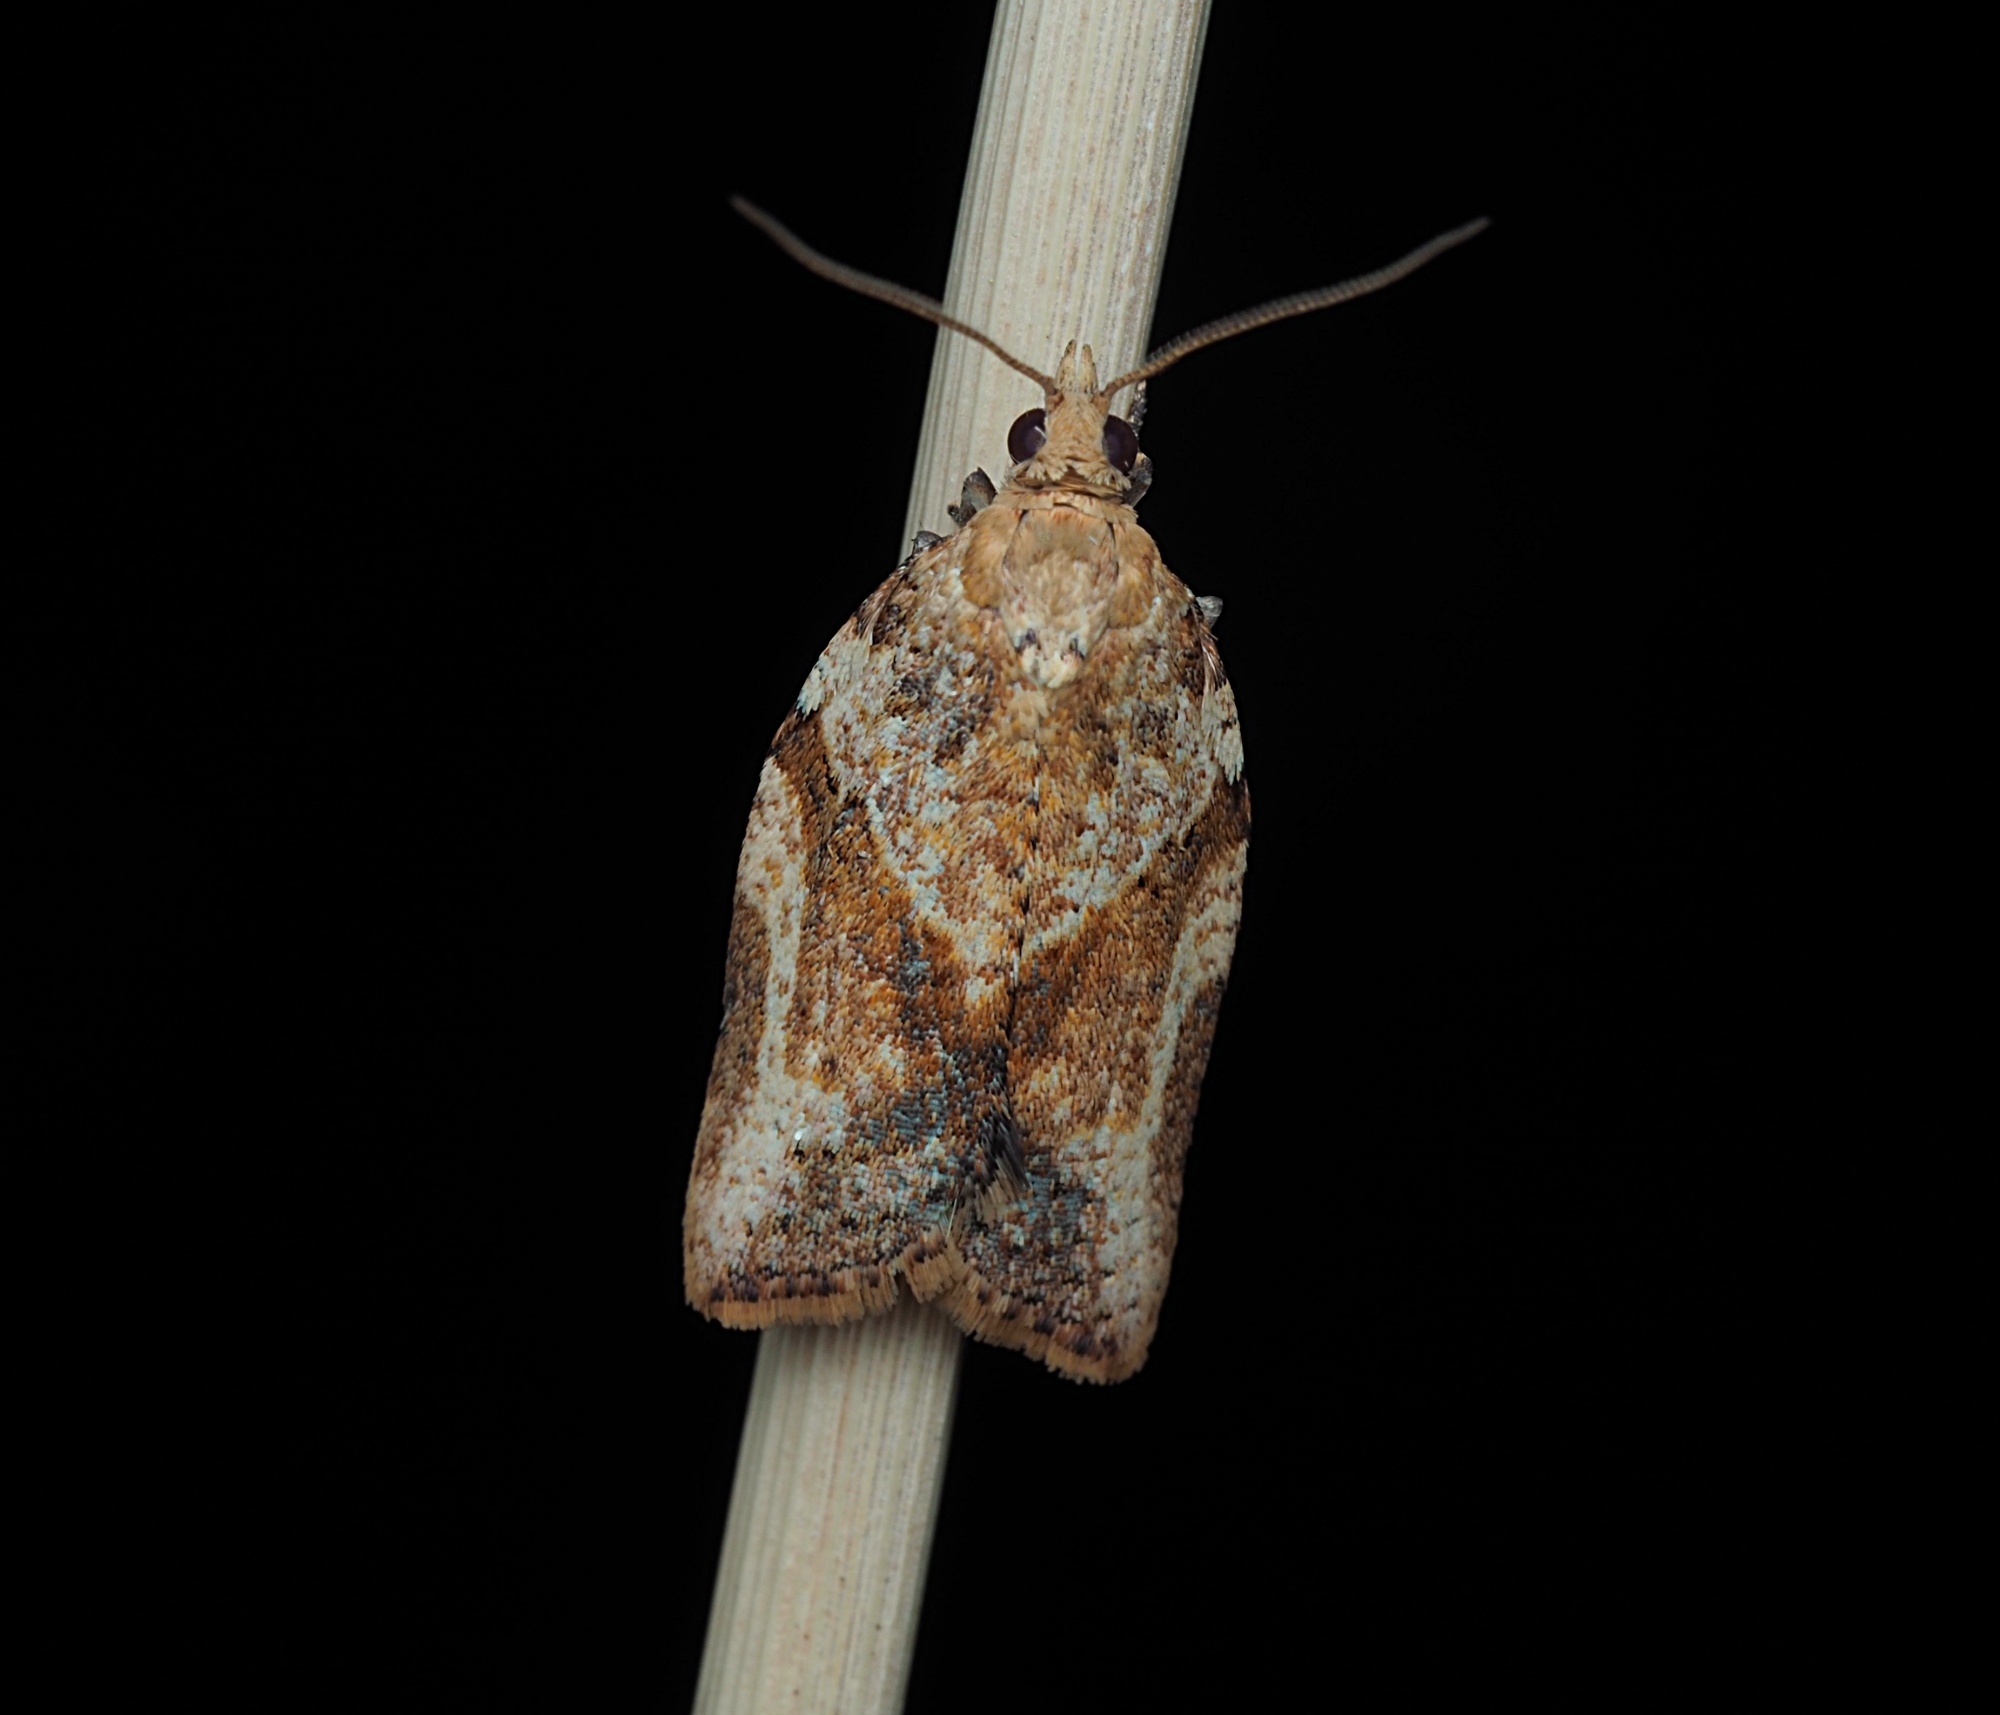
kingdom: Animalia
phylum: Arthropoda
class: Insecta
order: Lepidoptera
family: Tortricidae
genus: Epiphyas
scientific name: Epiphyas postvittana
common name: Light brown apple moth
